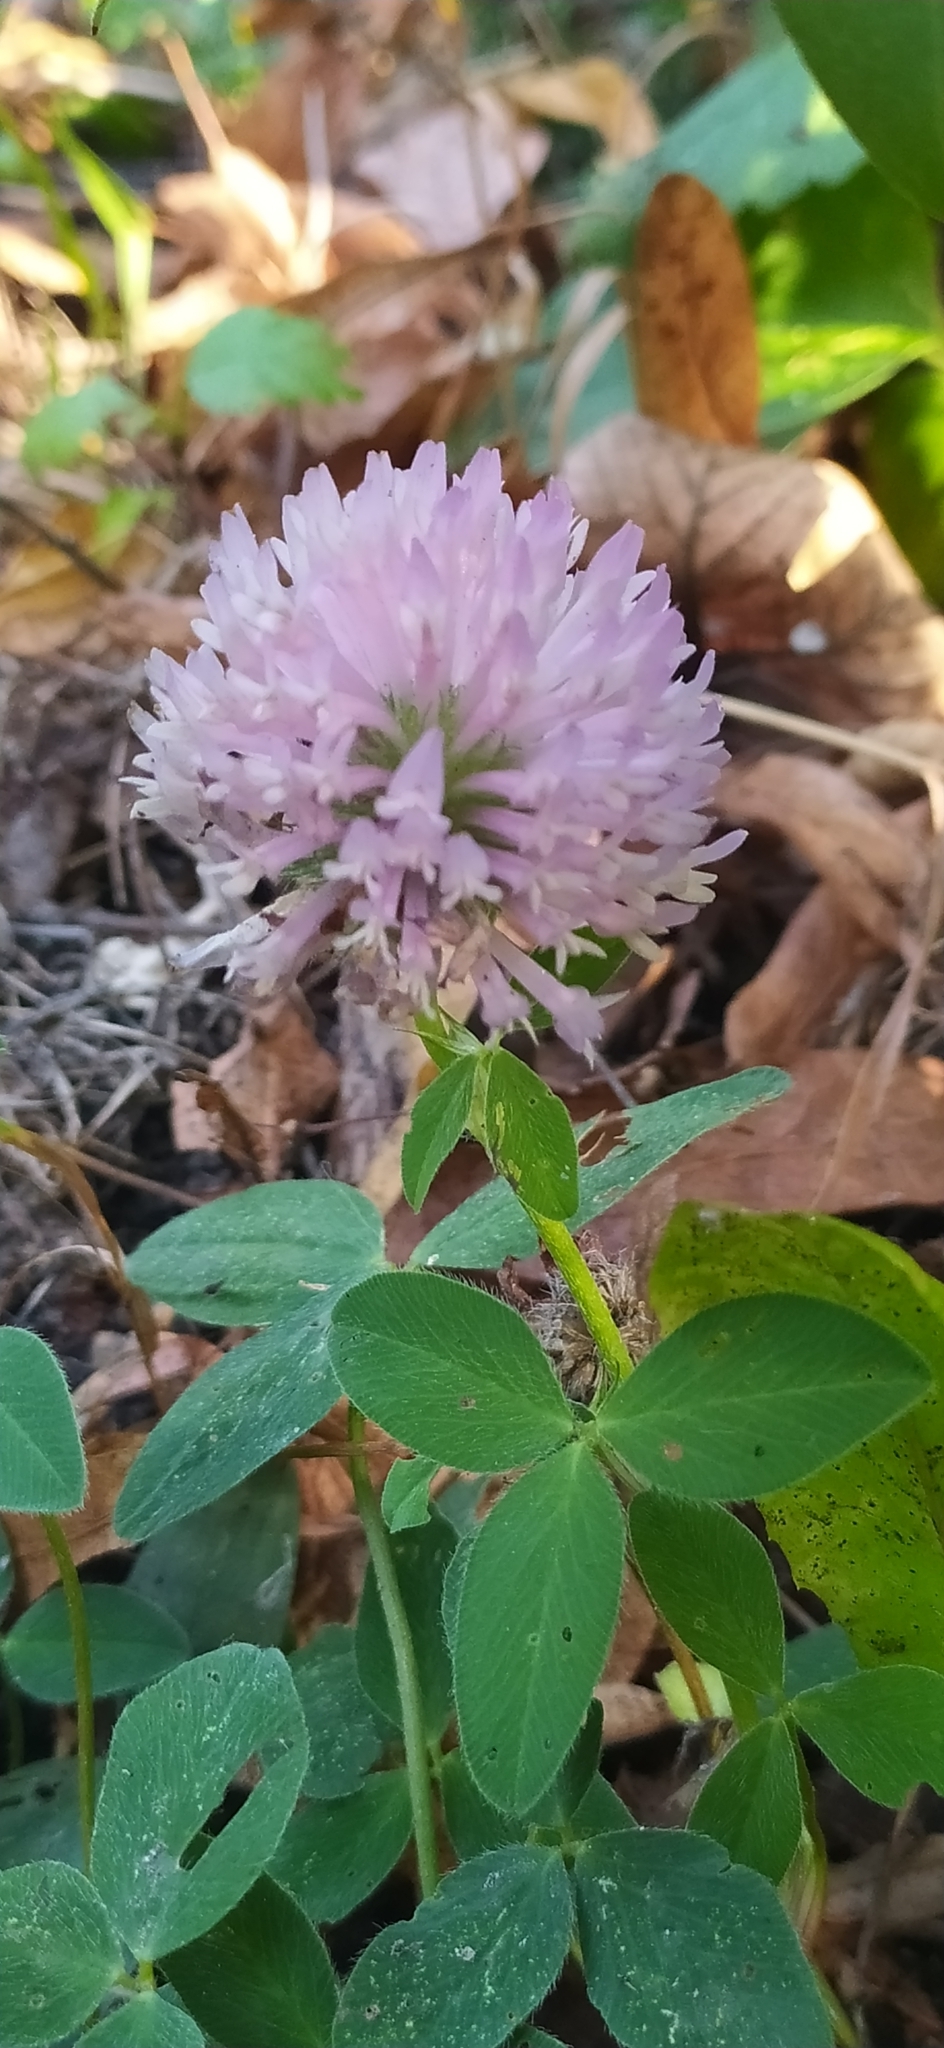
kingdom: Plantae
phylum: Tracheophyta
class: Magnoliopsida
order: Fabales
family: Fabaceae
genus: Trifolium
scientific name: Trifolium pratense
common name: Red clover
